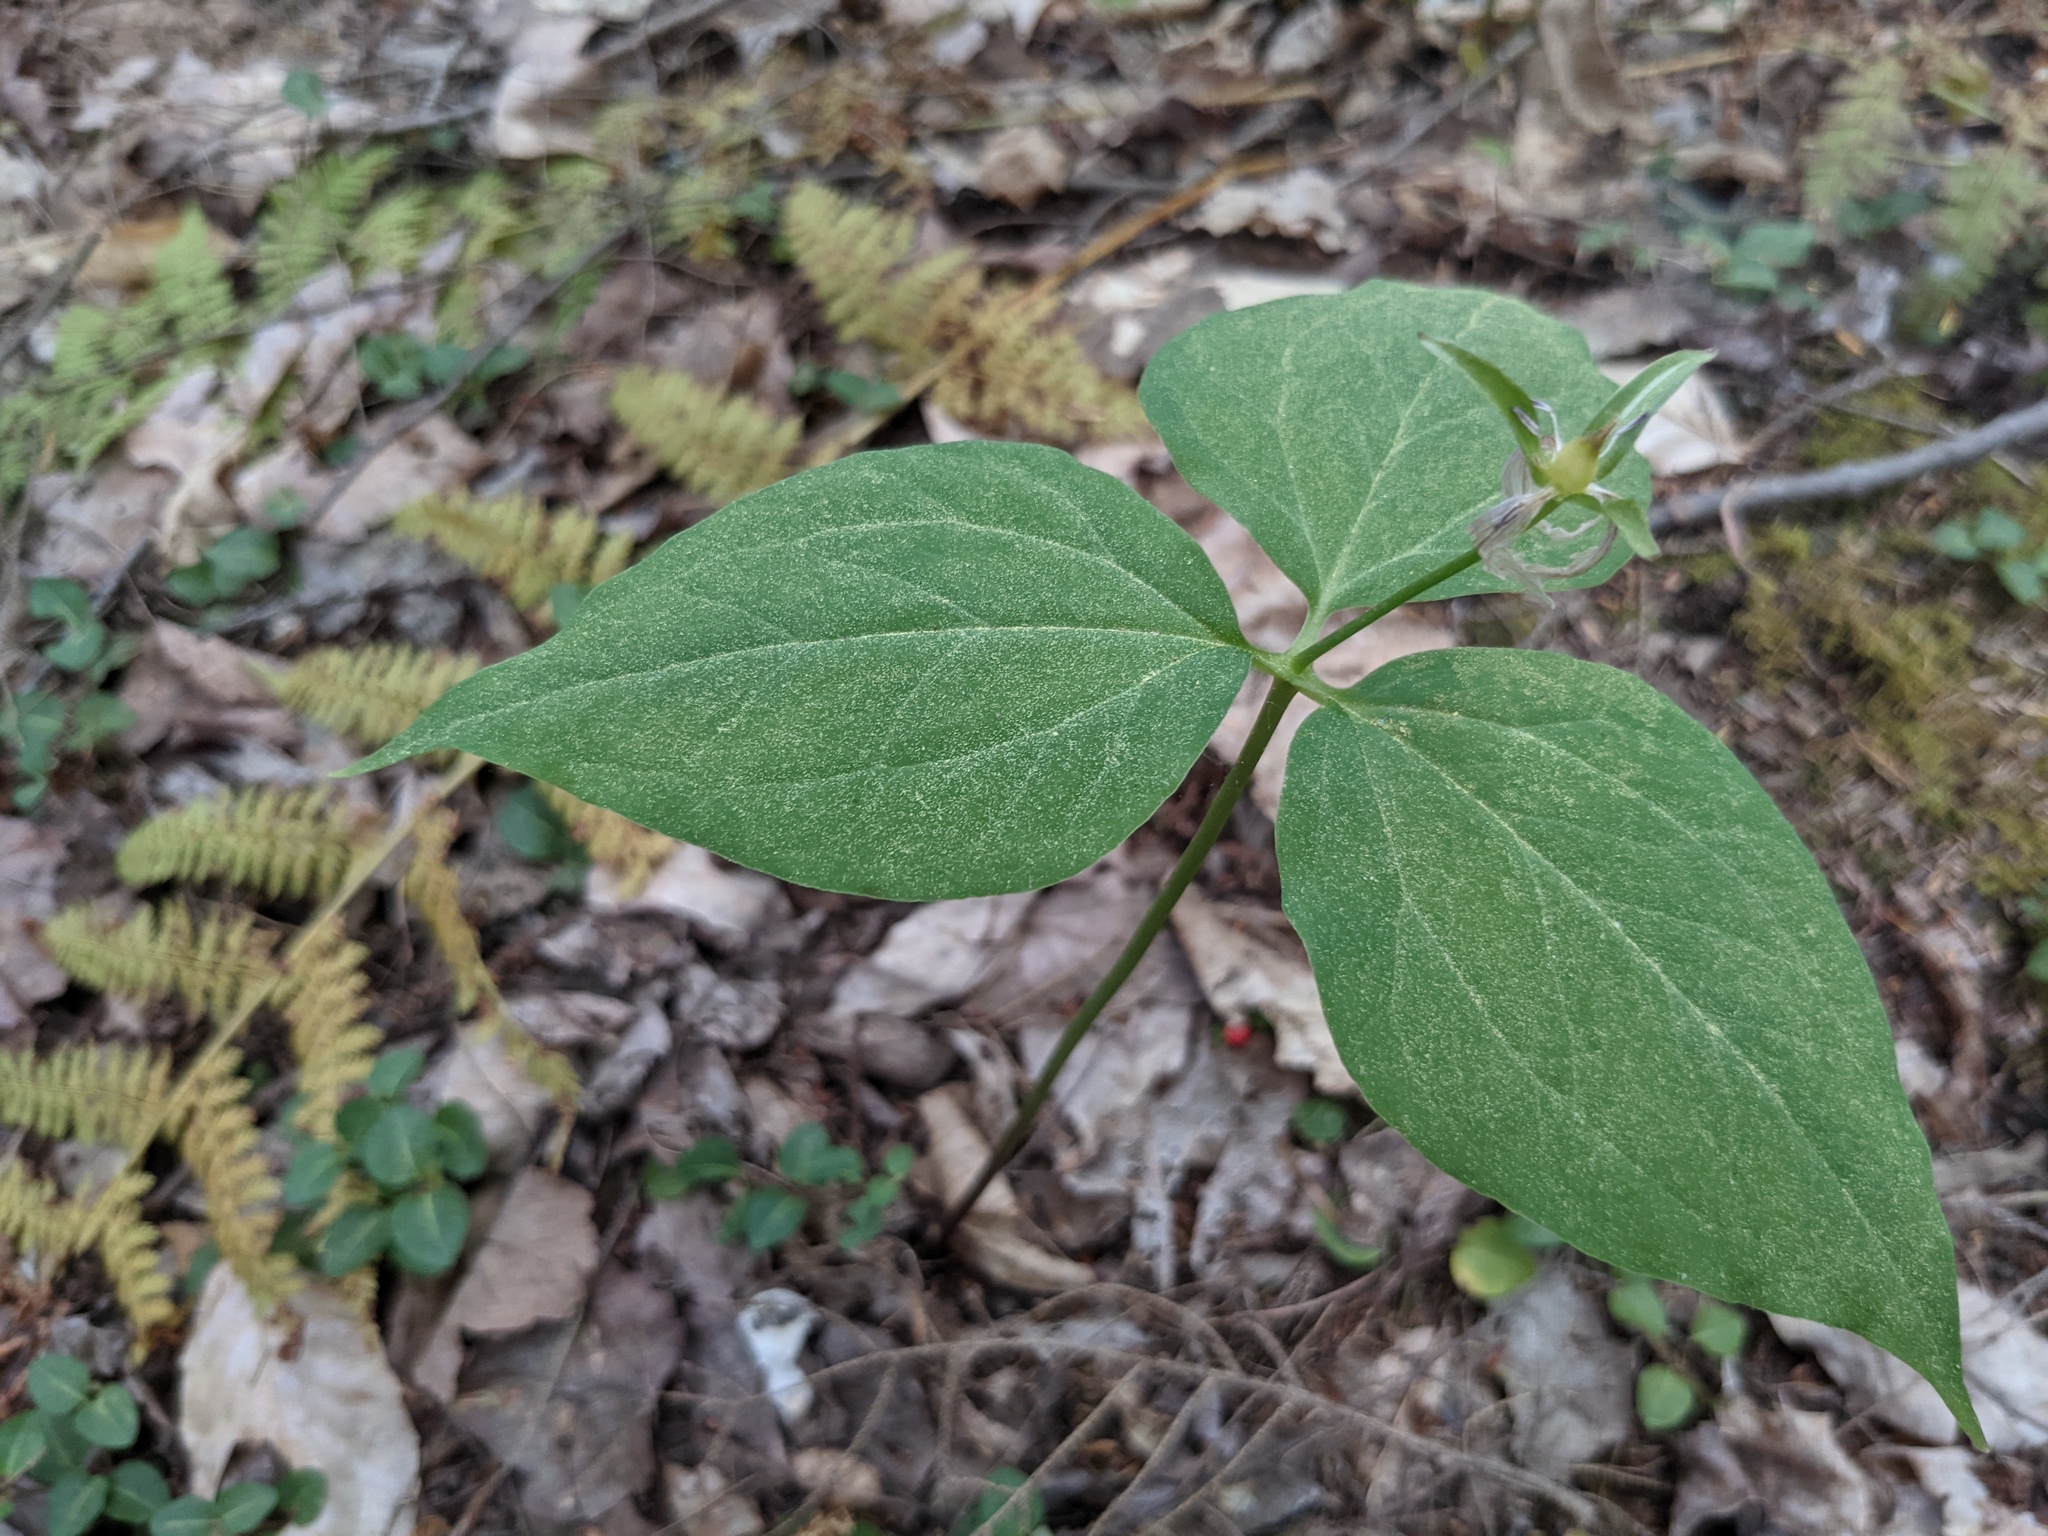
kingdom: Plantae
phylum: Tracheophyta
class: Liliopsida
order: Liliales
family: Melanthiaceae
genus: Trillium
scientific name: Trillium undulatum
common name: Paint trillium
